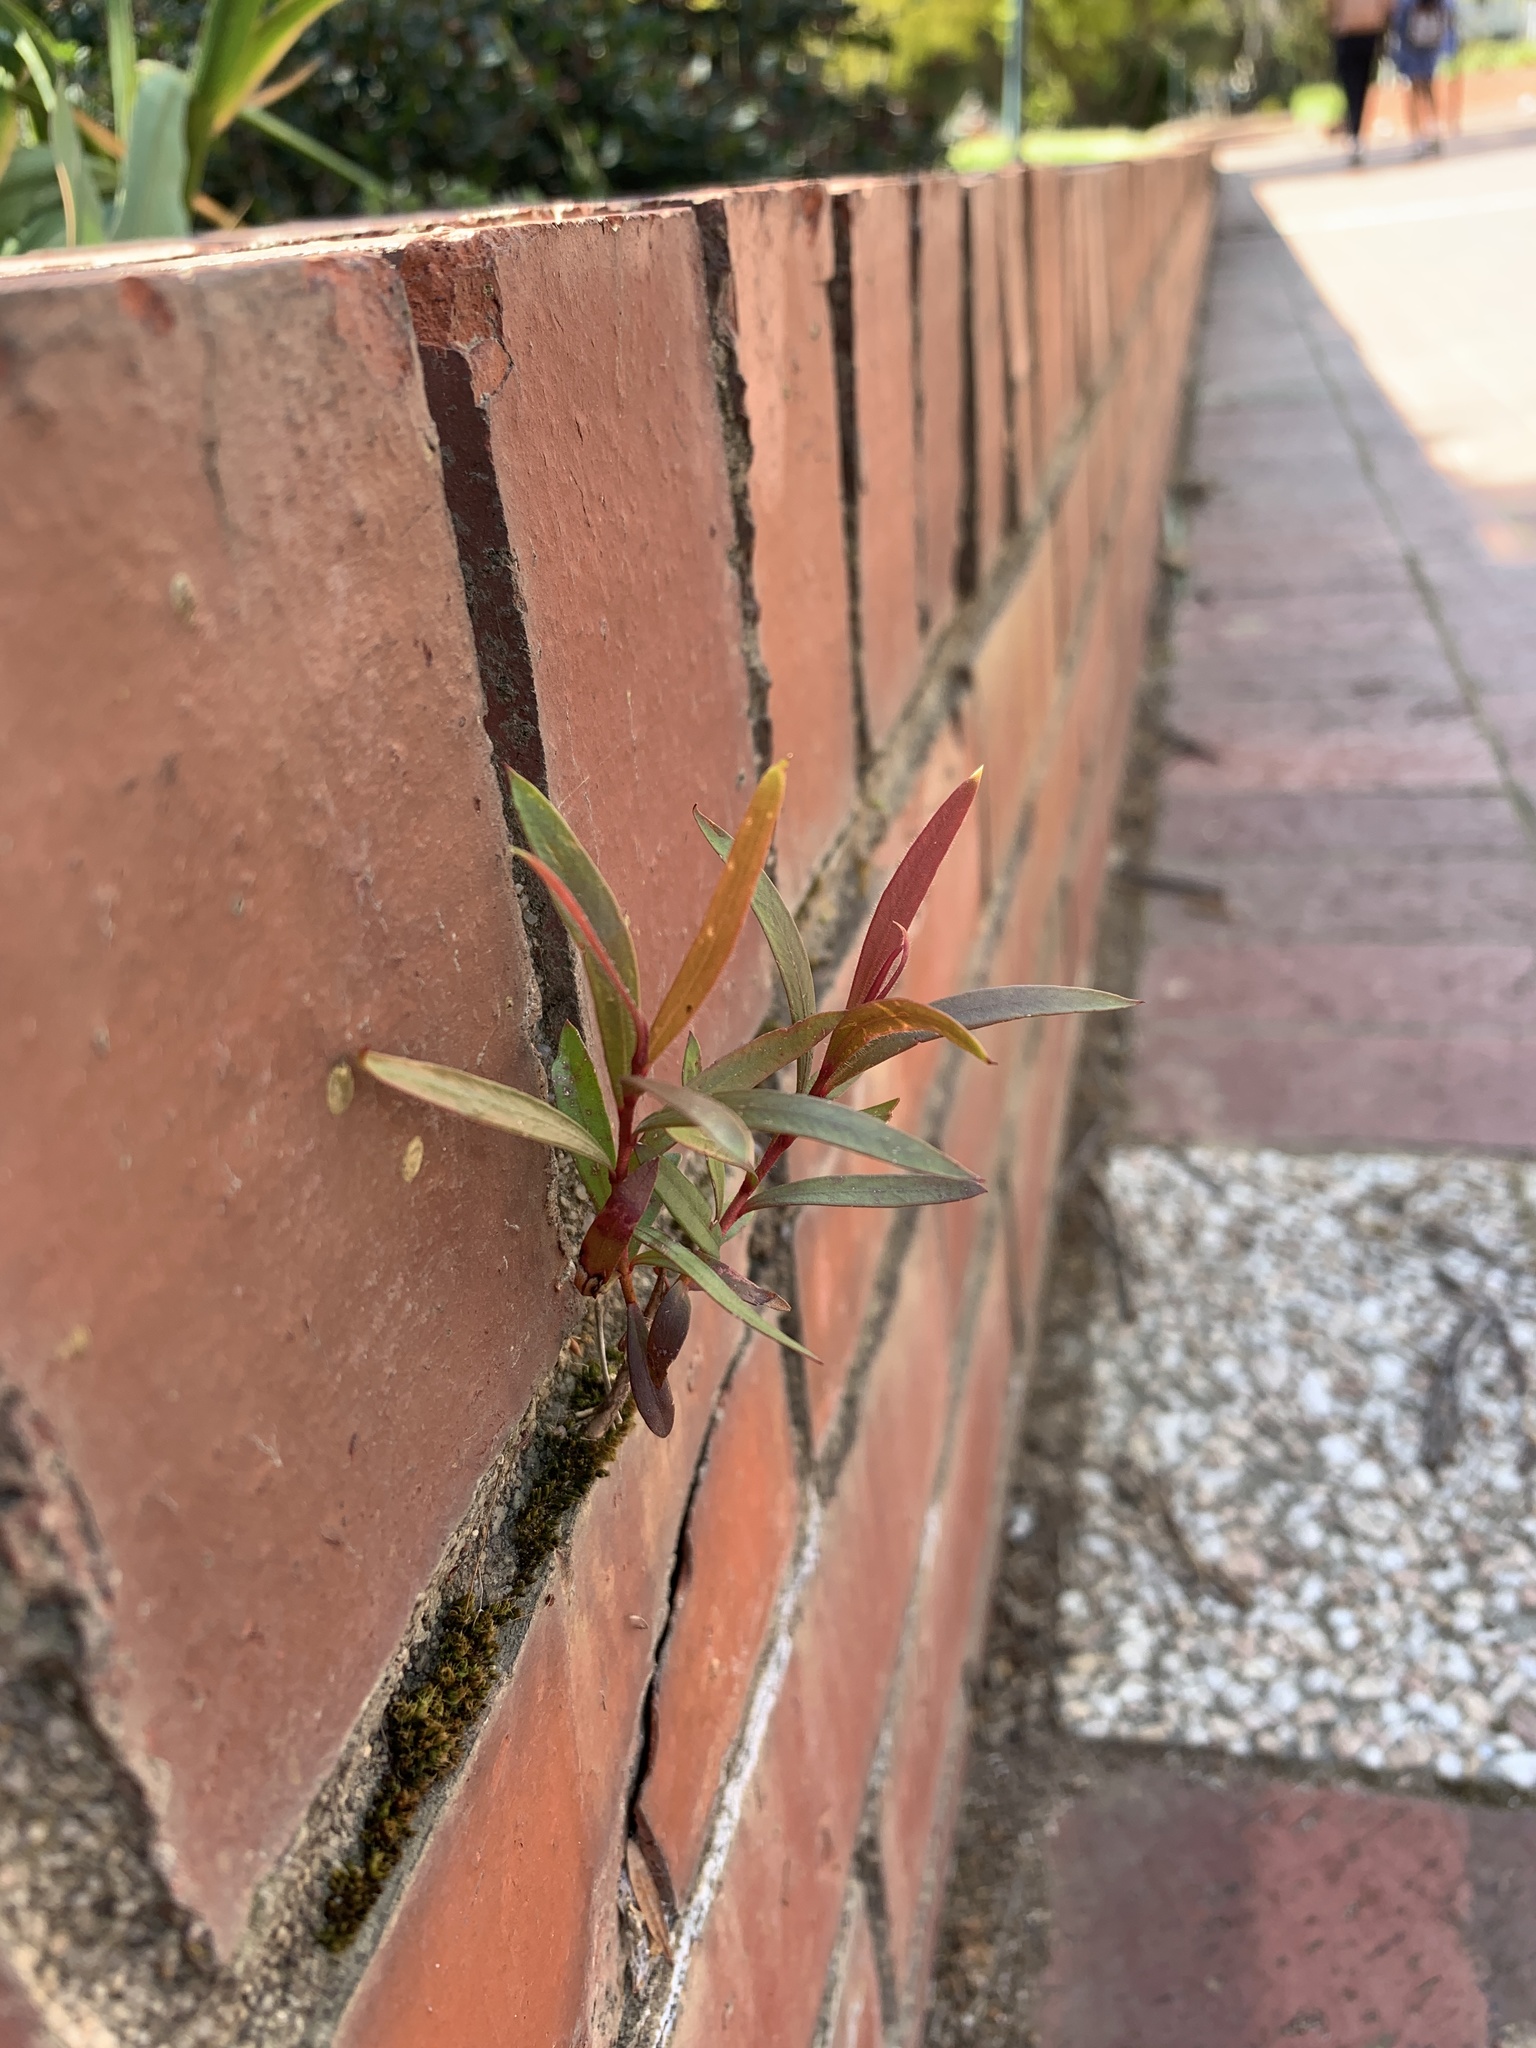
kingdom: Plantae
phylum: Tracheophyta
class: Magnoliopsida
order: Myrtales
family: Myrtaceae
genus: Callistemon
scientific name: Callistemon viminalis
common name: Drooping bottlebrush
